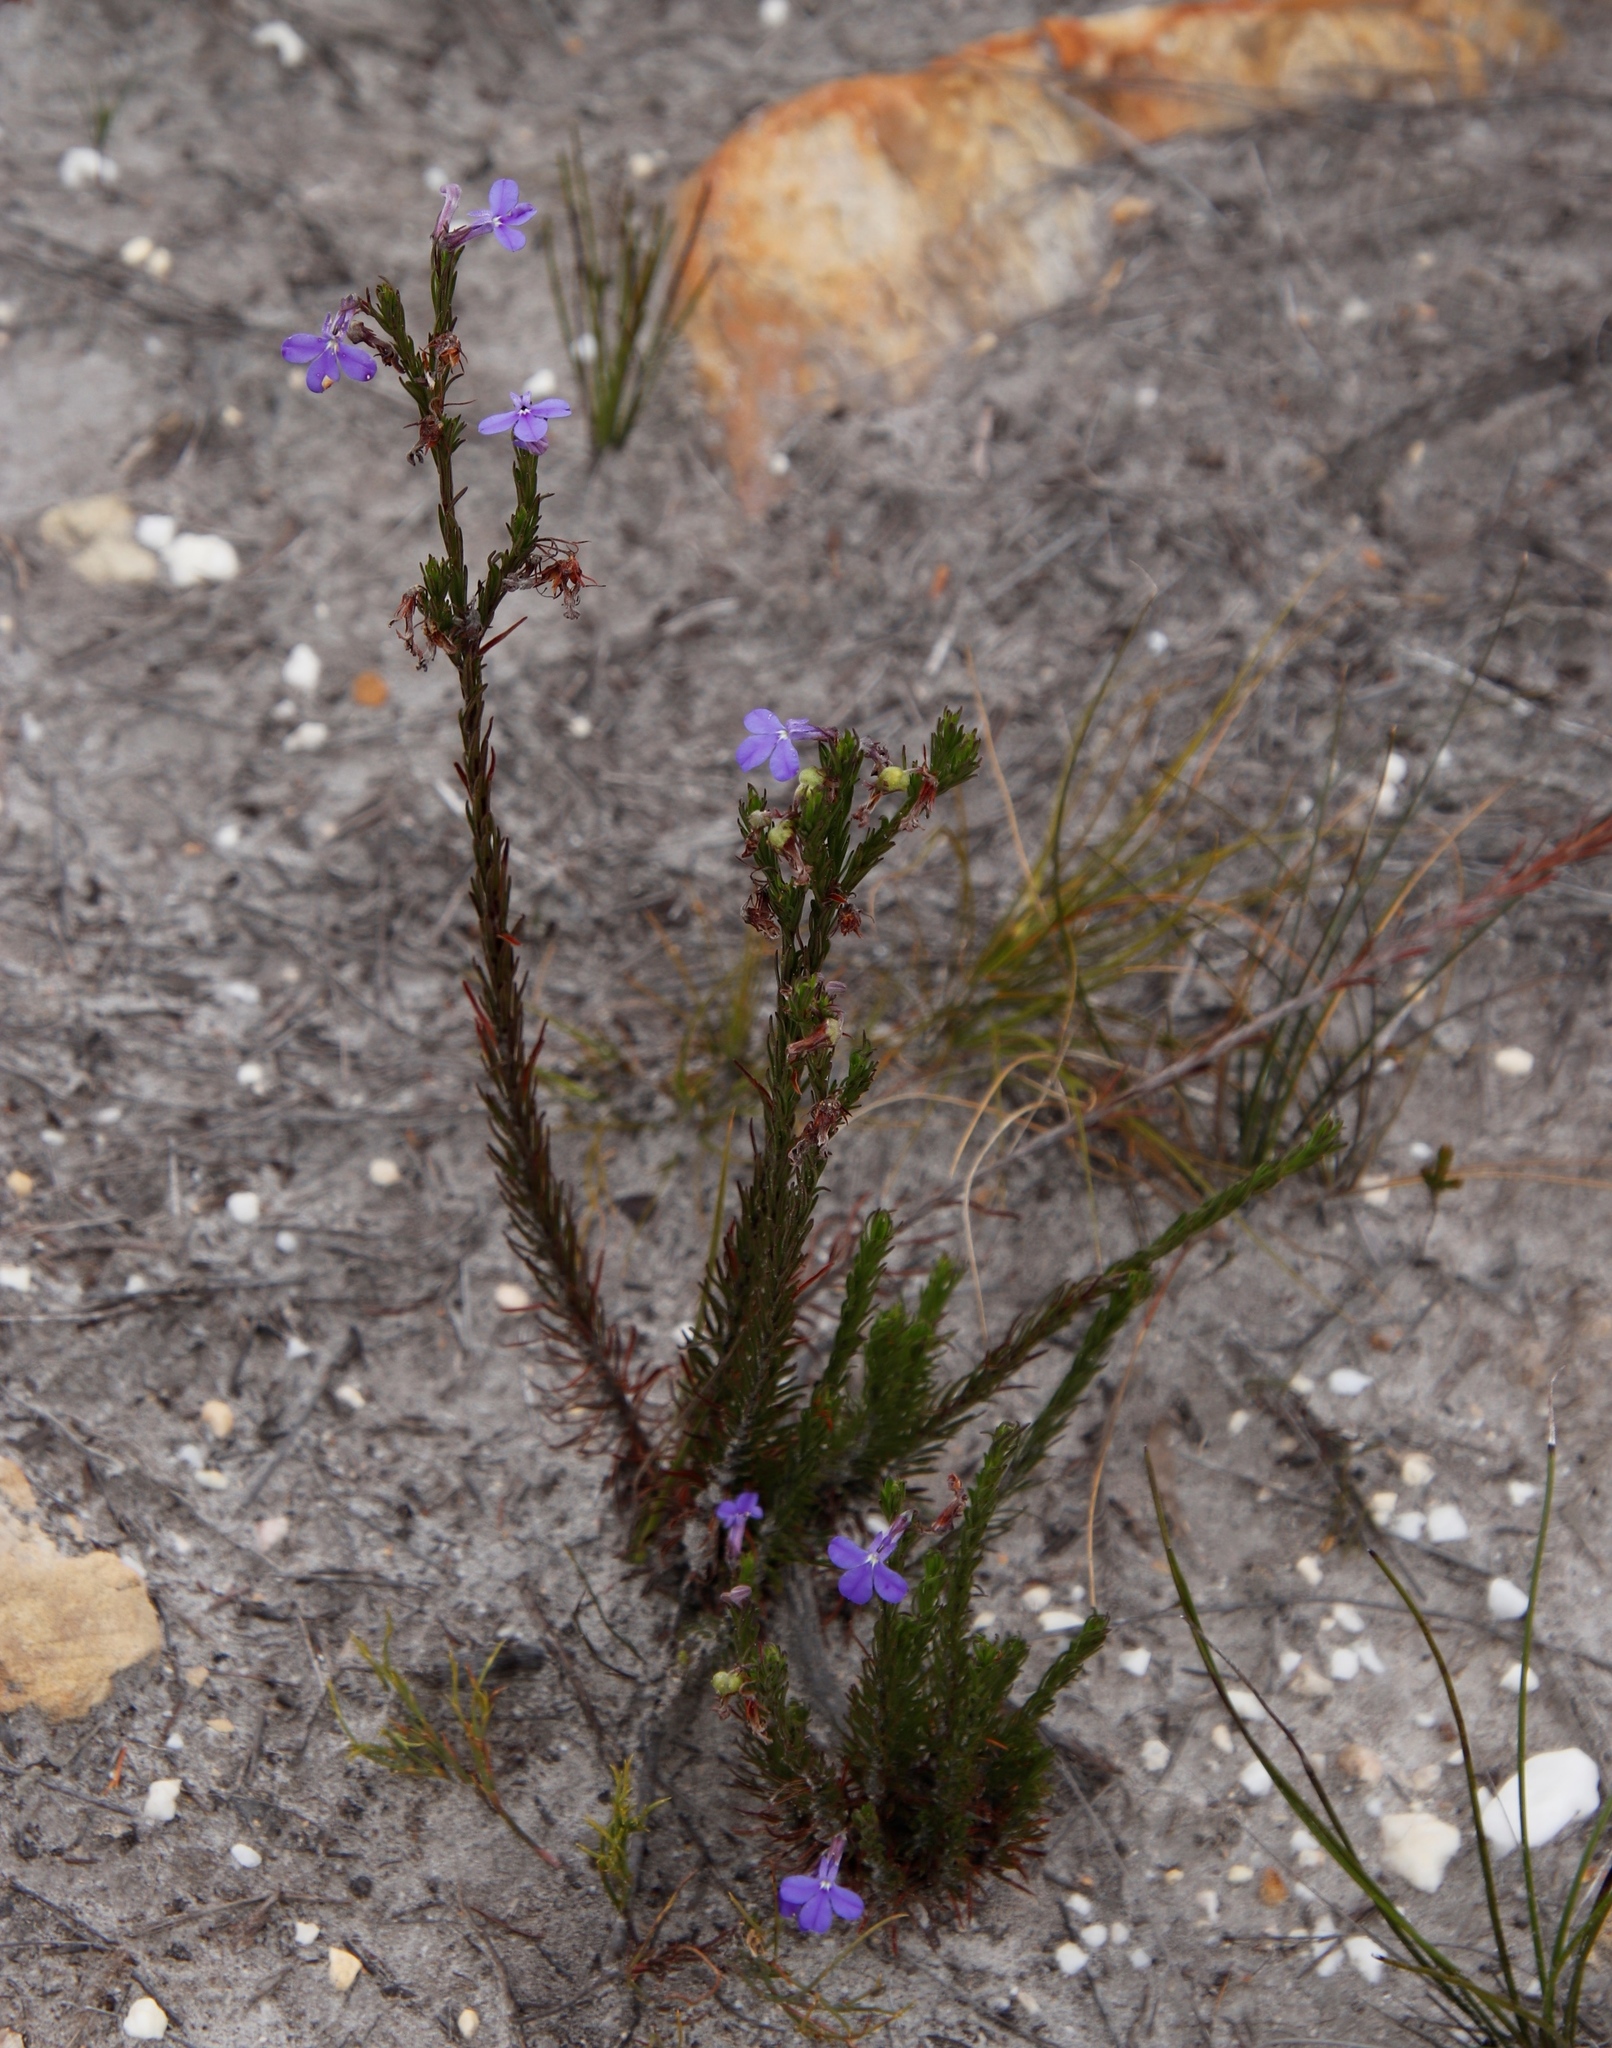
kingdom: Plantae
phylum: Tracheophyta
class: Magnoliopsida
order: Asterales
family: Campanulaceae
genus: Lobelia
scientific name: Lobelia pinifolia
